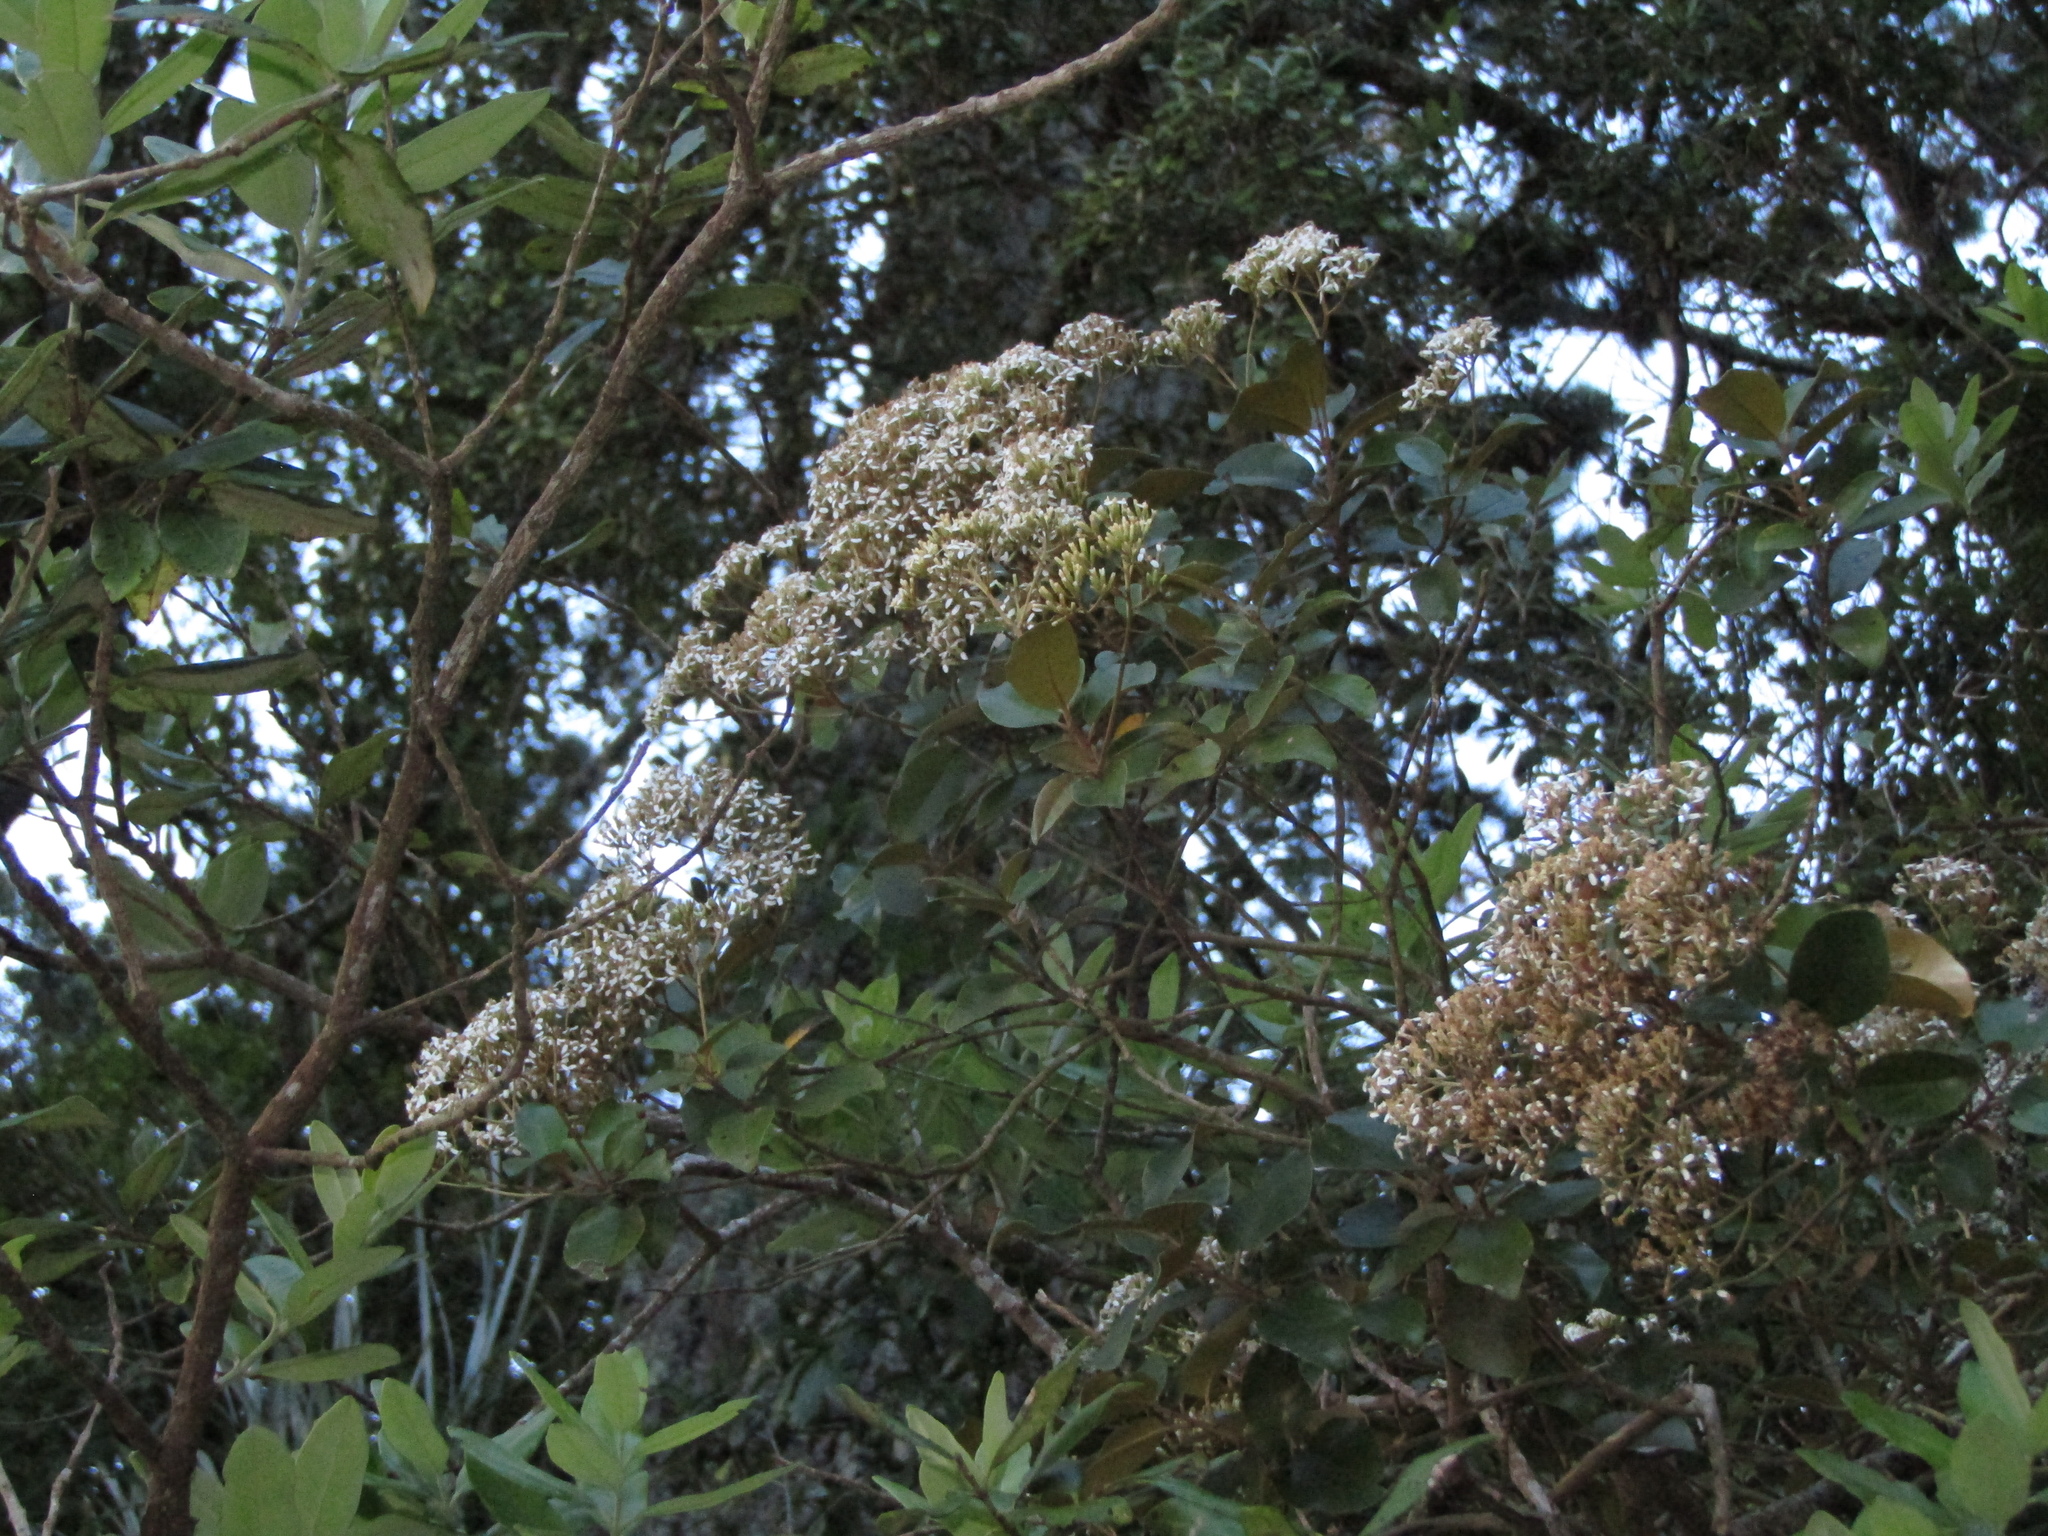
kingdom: Plantae
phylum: Tracheophyta
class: Magnoliopsida
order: Asterales
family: Asteraceae
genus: Olearia
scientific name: Olearia furfuracea
